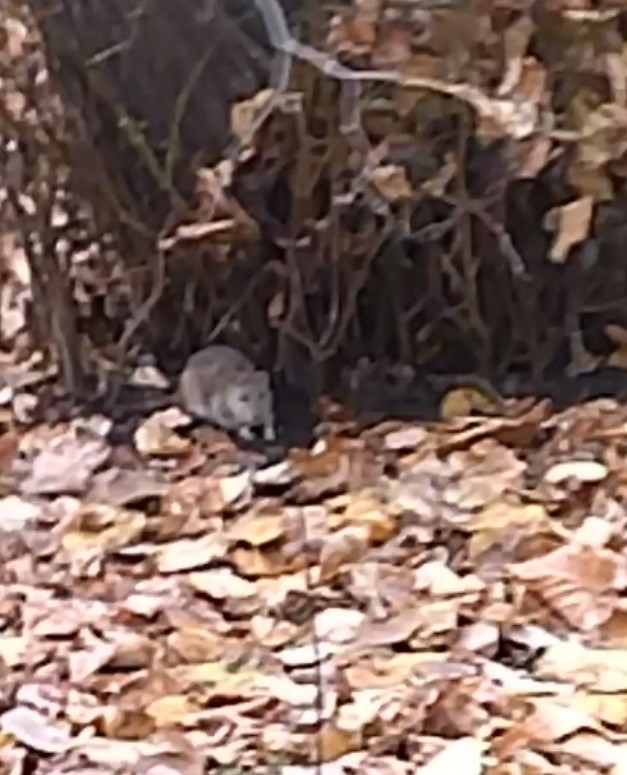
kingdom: Animalia
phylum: Chordata
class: Mammalia
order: Rodentia
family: Muridae
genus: Rattus
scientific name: Rattus norvegicus
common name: Brown rat
